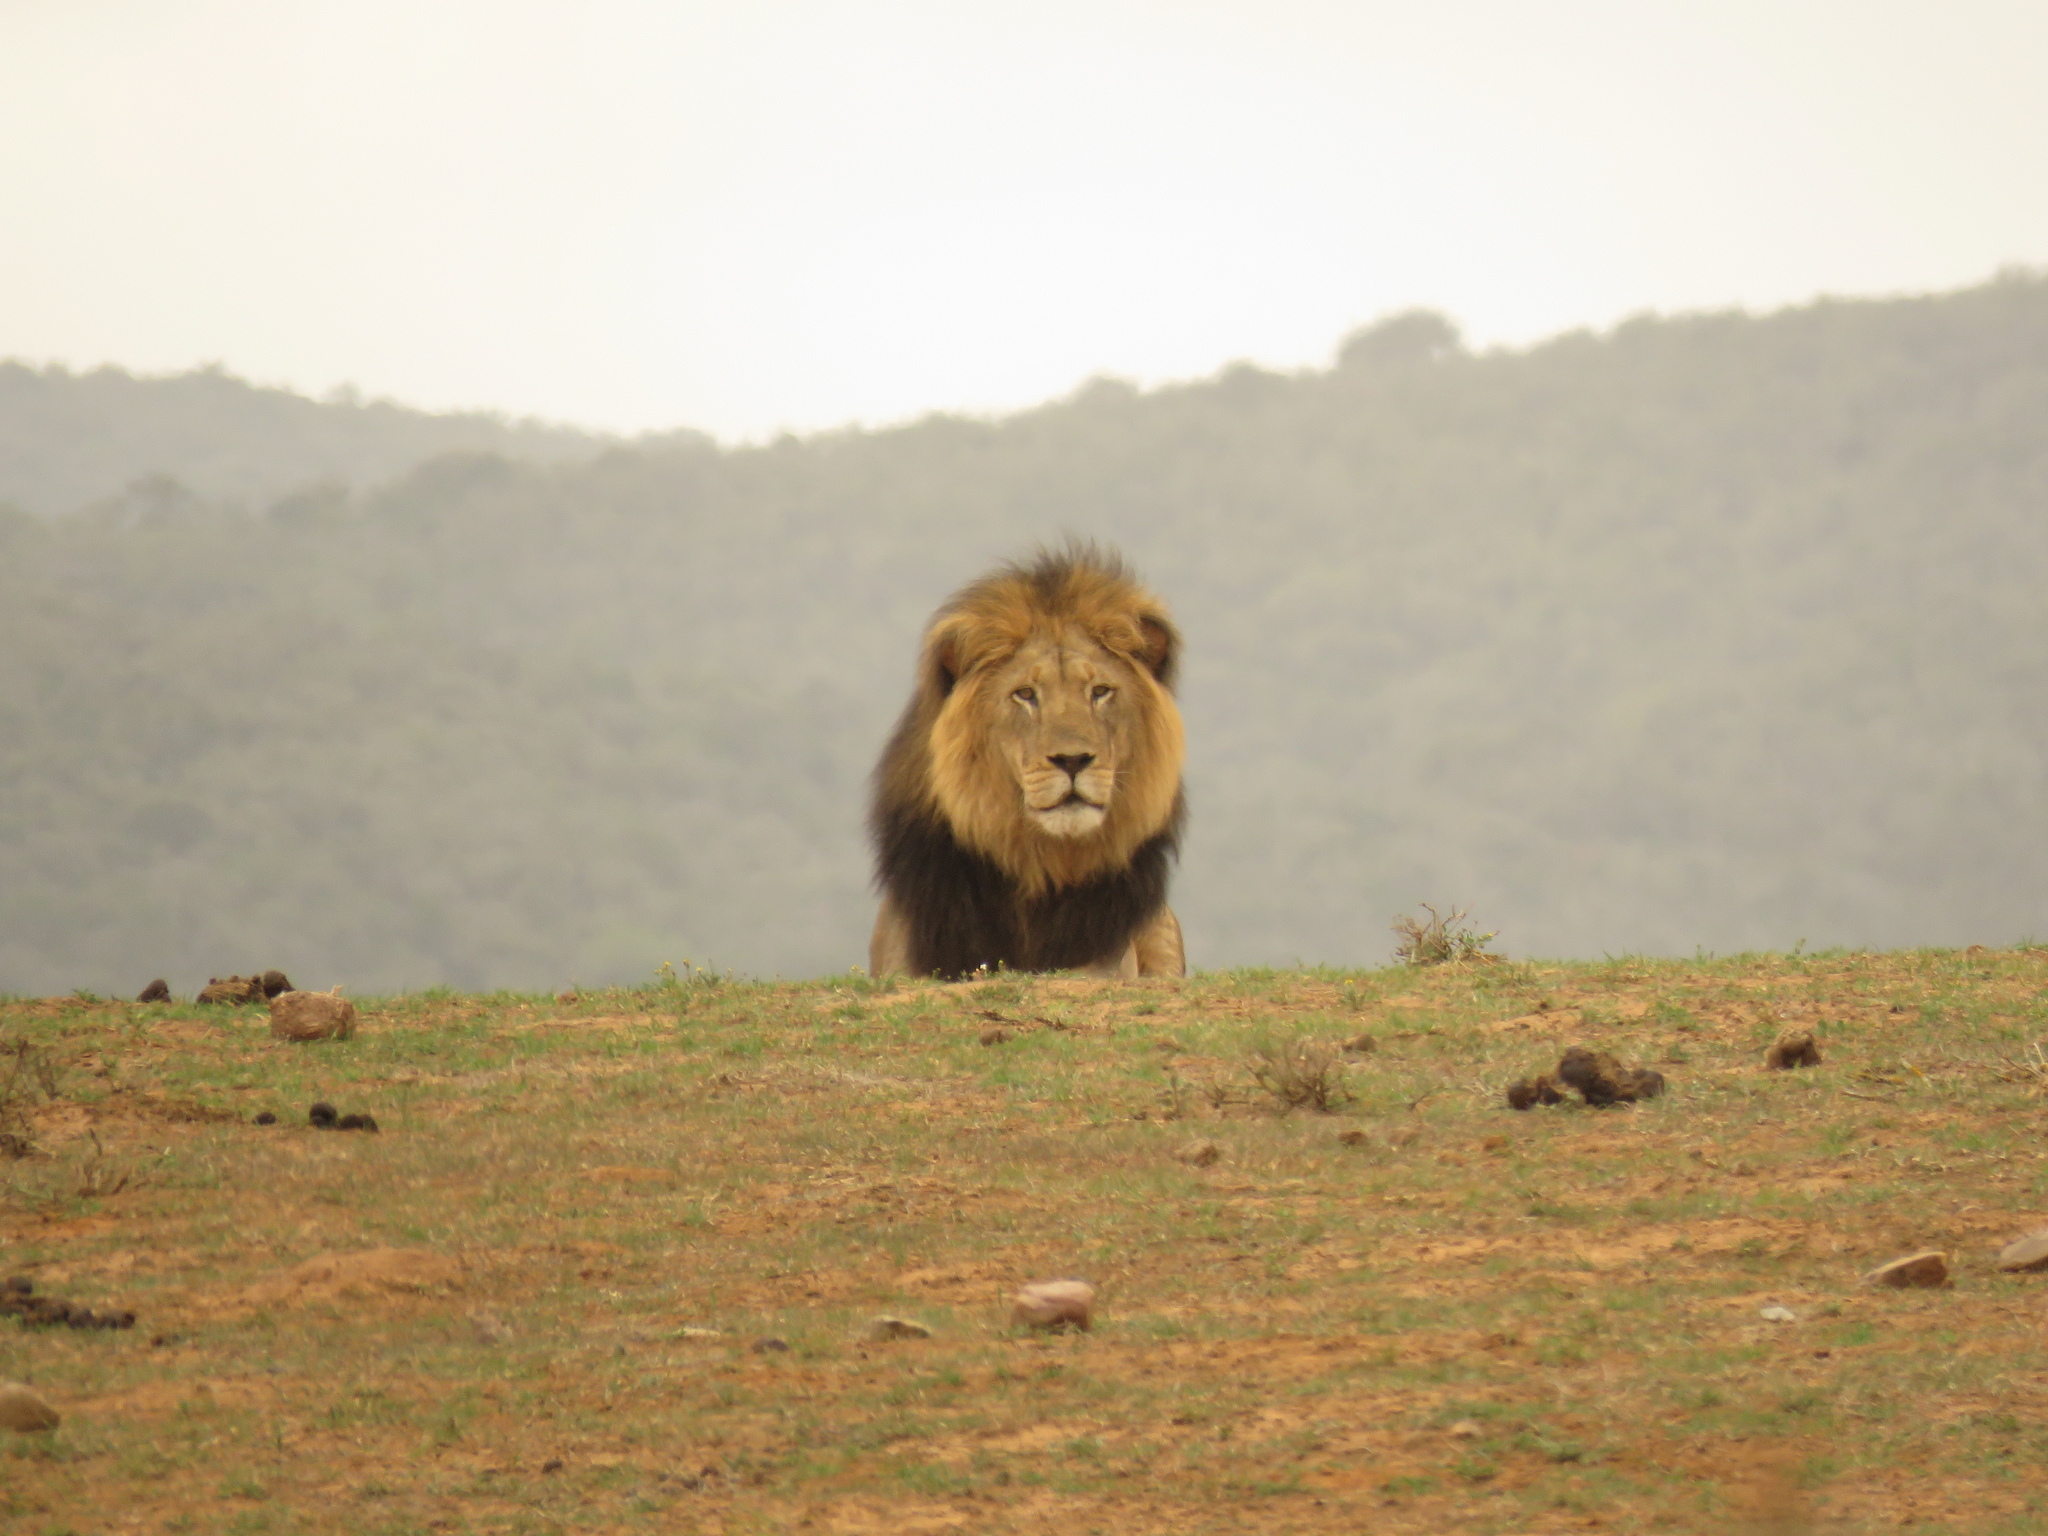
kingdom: Animalia
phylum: Chordata
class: Mammalia
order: Carnivora
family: Felidae
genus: Panthera
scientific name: Panthera leo
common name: Lion
